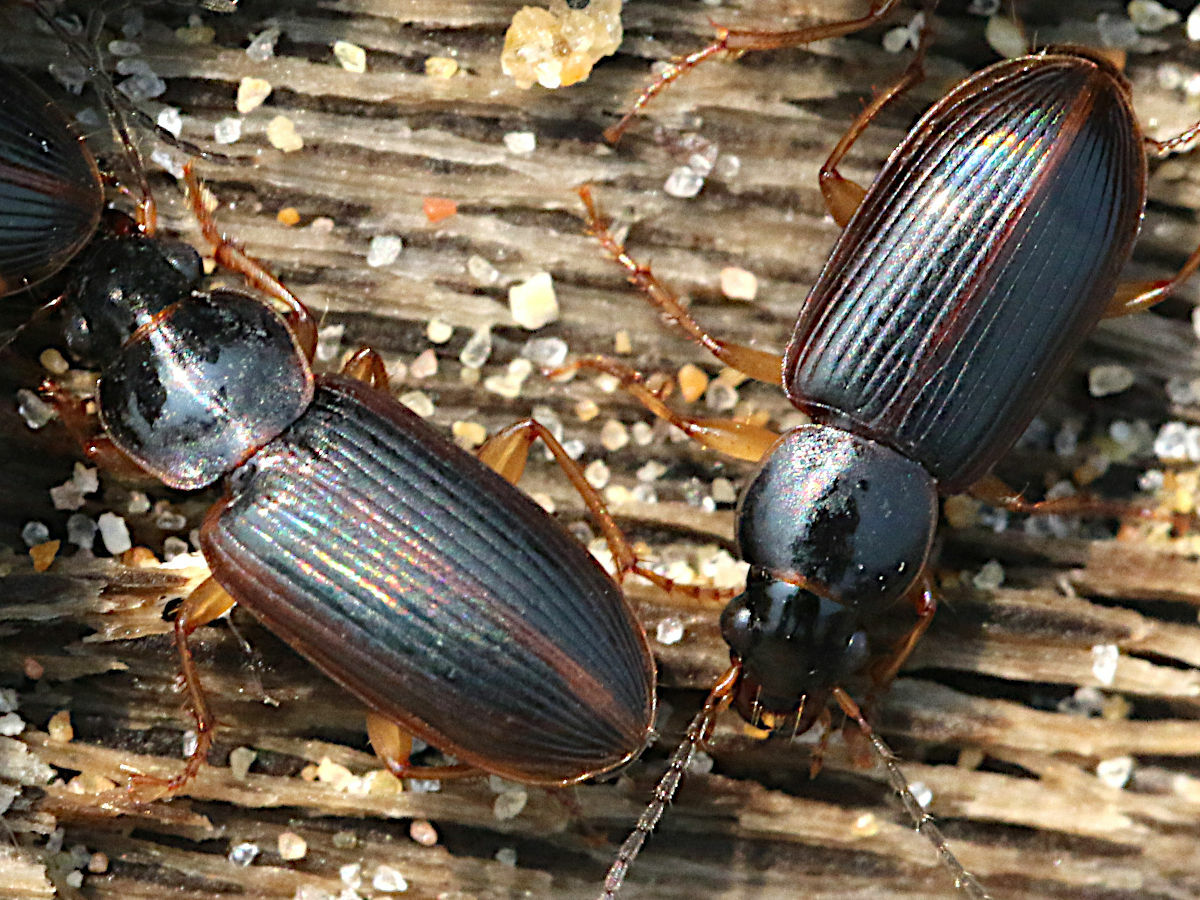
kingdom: Animalia
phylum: Arthropoda
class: Insecta
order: Coleoptera
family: Carabidae
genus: Stenolophus
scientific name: Stenolophus ochropezus
